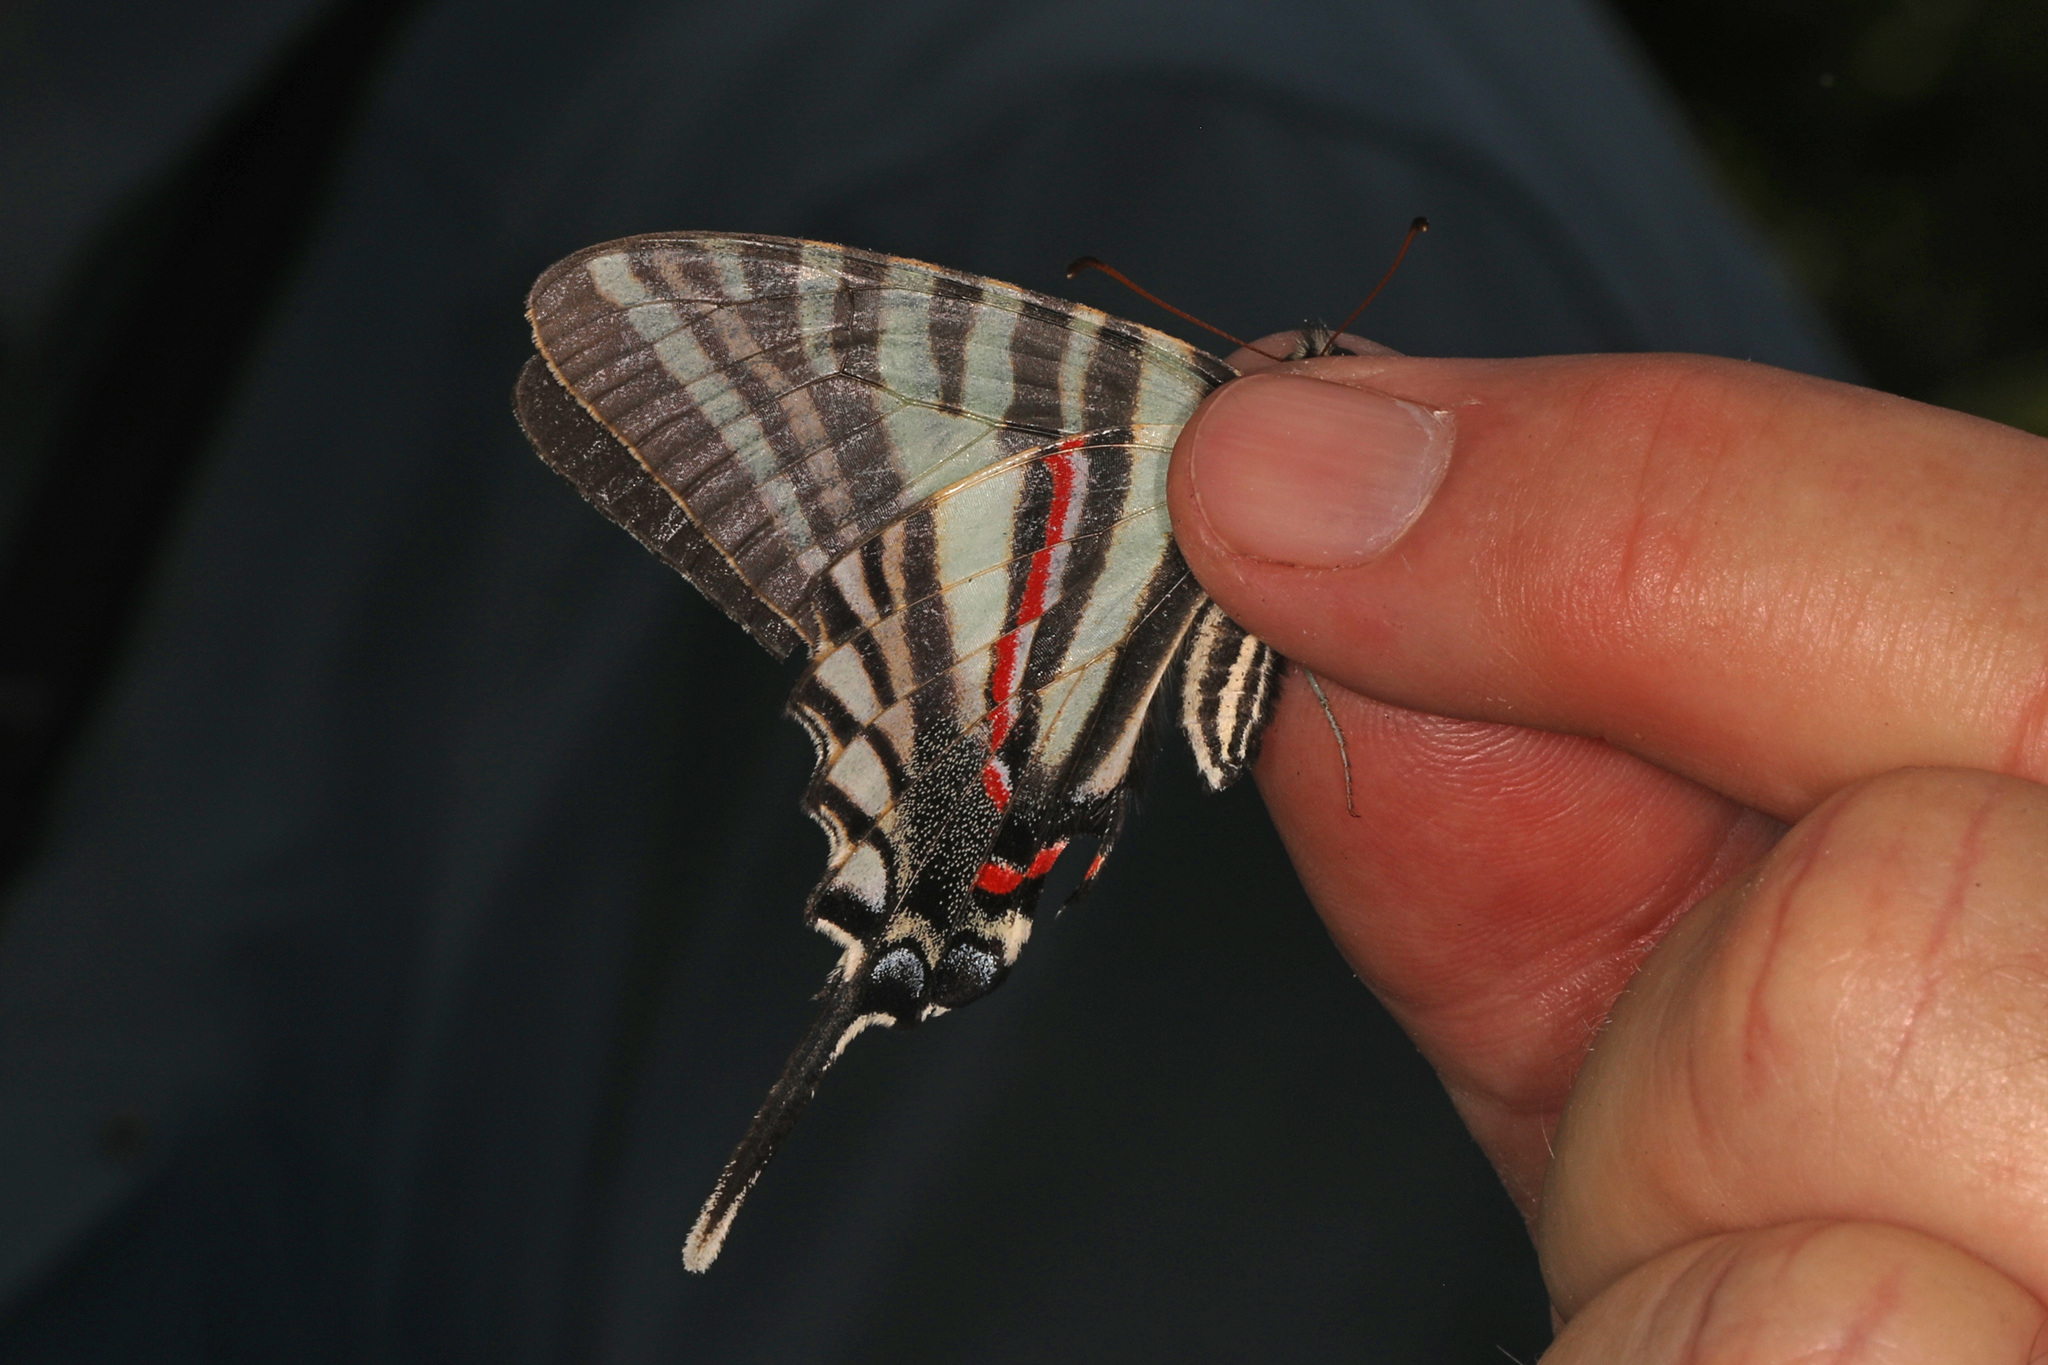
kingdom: Animalia
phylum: Arthropoda
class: Insecta
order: Lepidoptera
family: Papilionidae
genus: Protographium
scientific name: Protographium marcellus
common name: Zebra swallowtail
